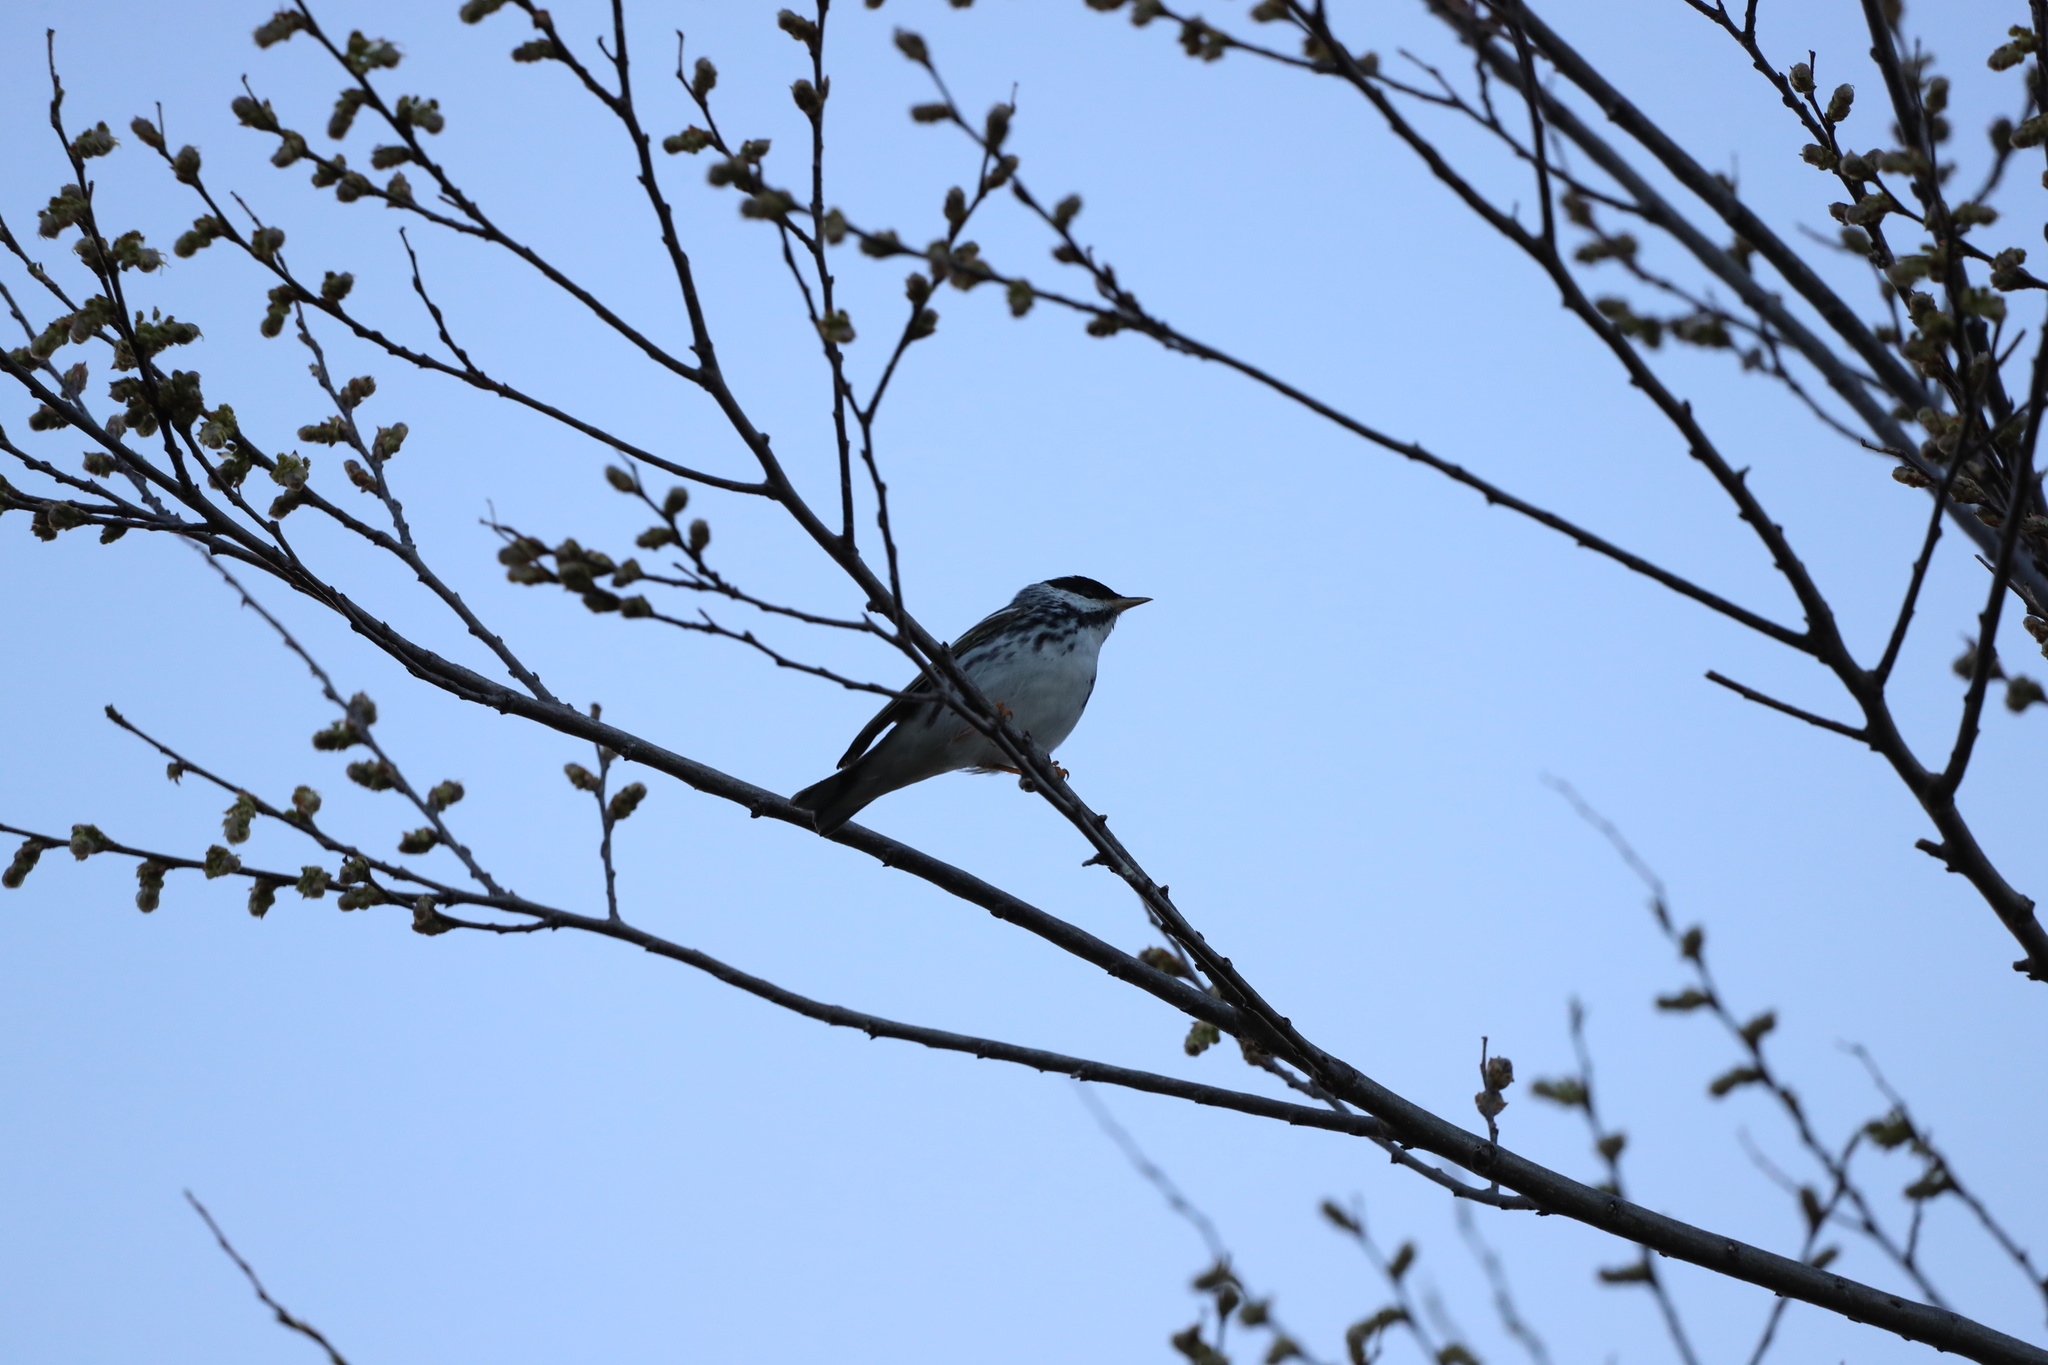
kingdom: Animalia
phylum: Chordata
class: Aves
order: Passeriformes
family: Parulidae
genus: Setophaga
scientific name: Setophaga striata
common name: Blackpoll warbler
